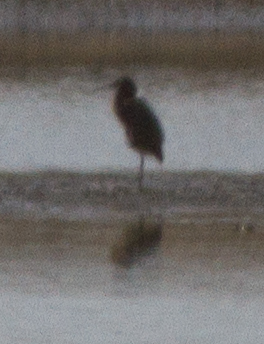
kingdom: Animalia
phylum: Chordata
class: Aves
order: Pelecaniformes
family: Ardeidae
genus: Egretta
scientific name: Egretta rufescens
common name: Reddish egret
